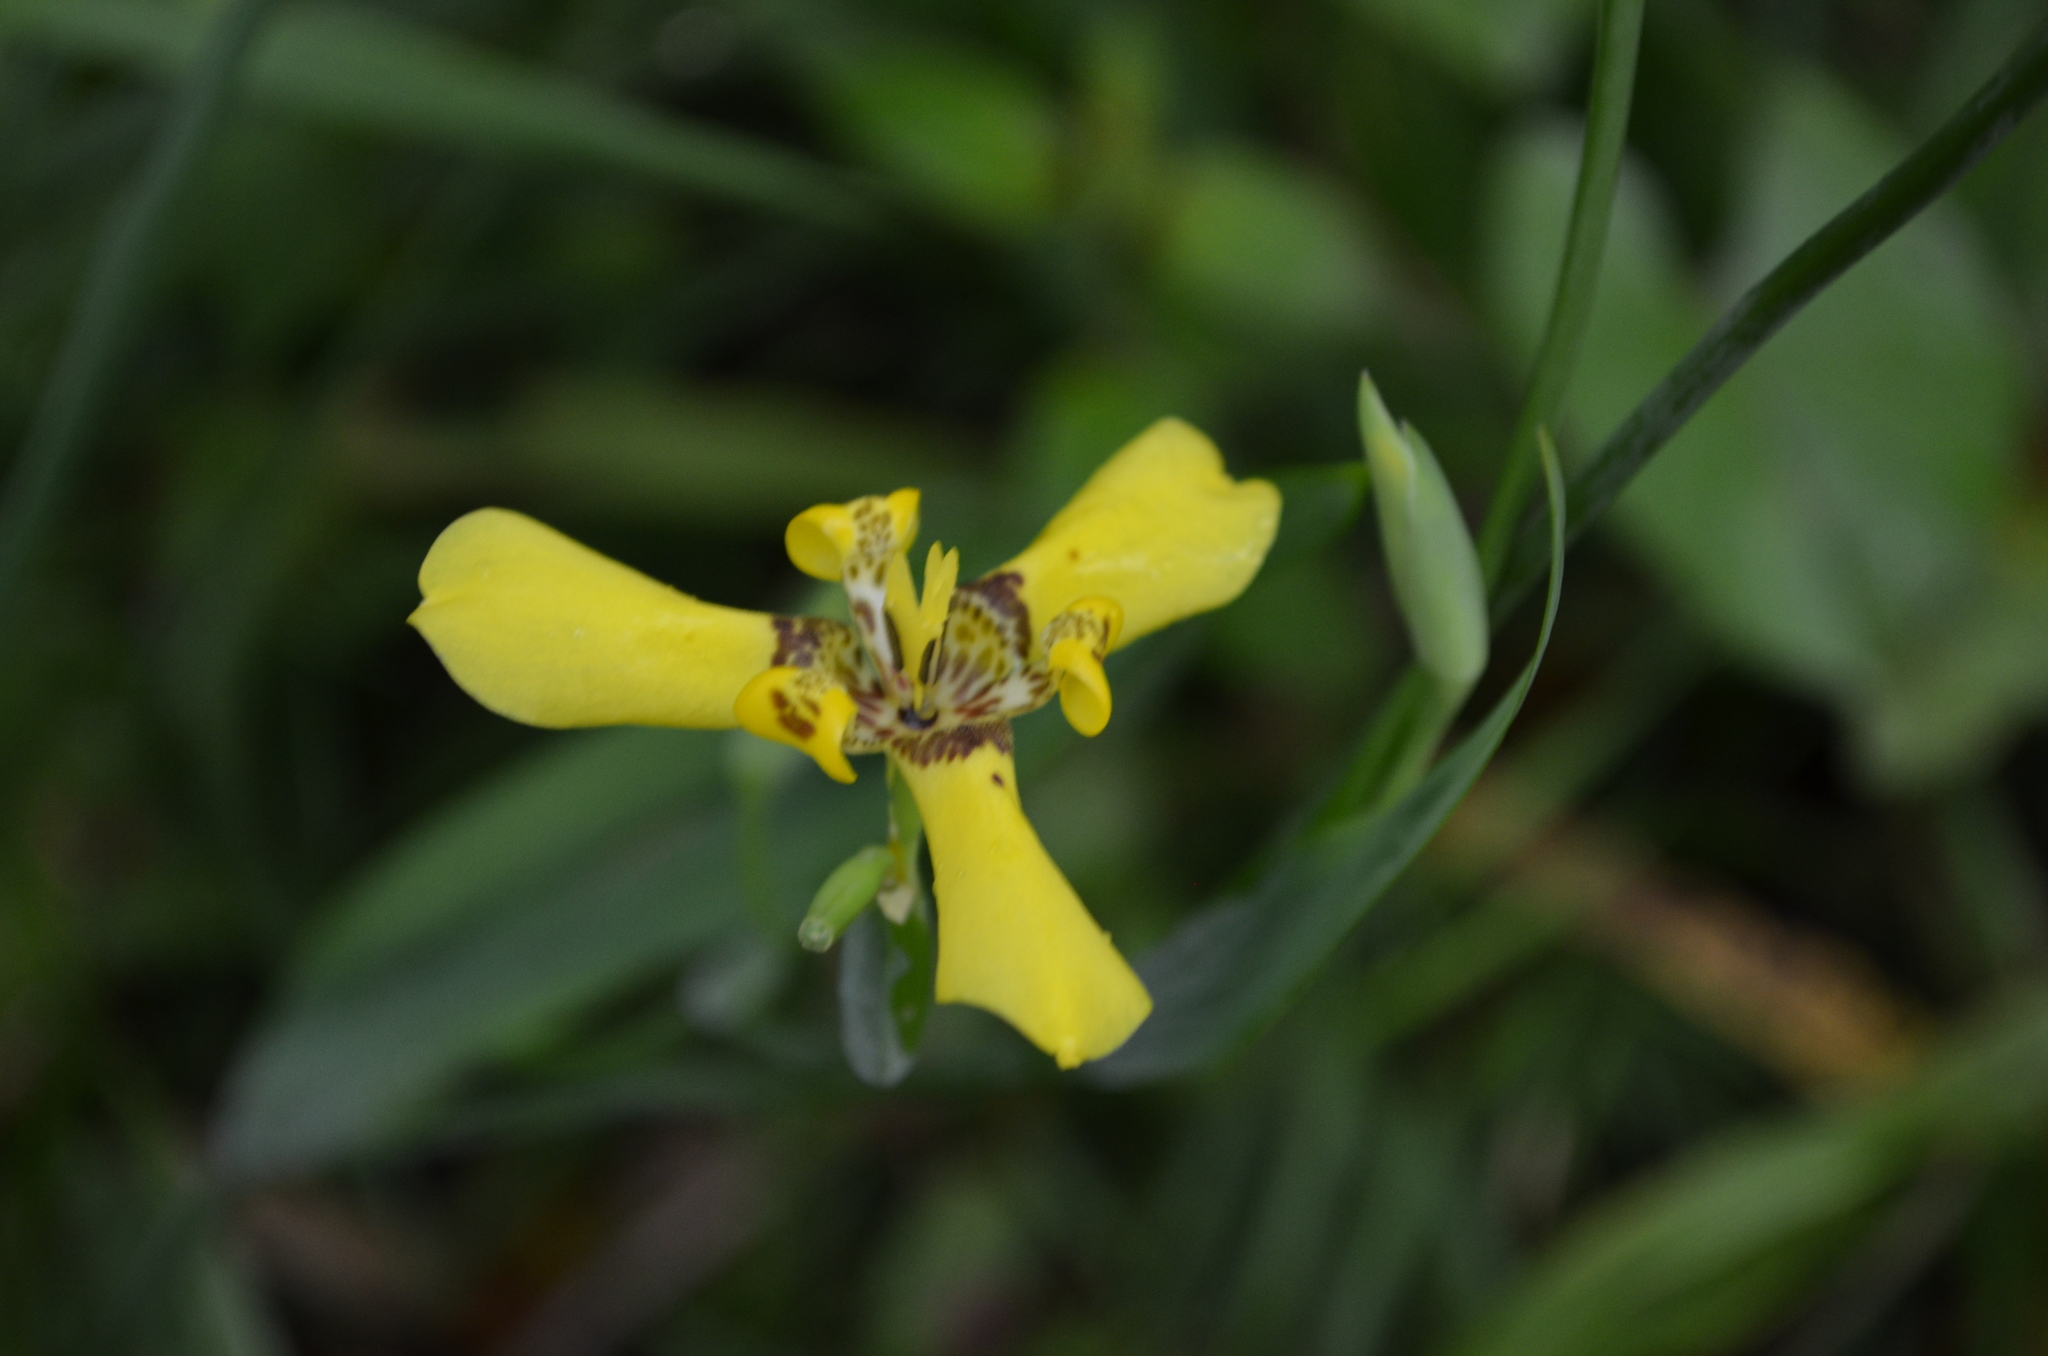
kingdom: Plantae
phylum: Tracheophyta
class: Liliopsida
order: Asparagales
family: Iridaceae
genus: Trimezia
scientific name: Trimezia steyermarkii
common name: Trimezia
